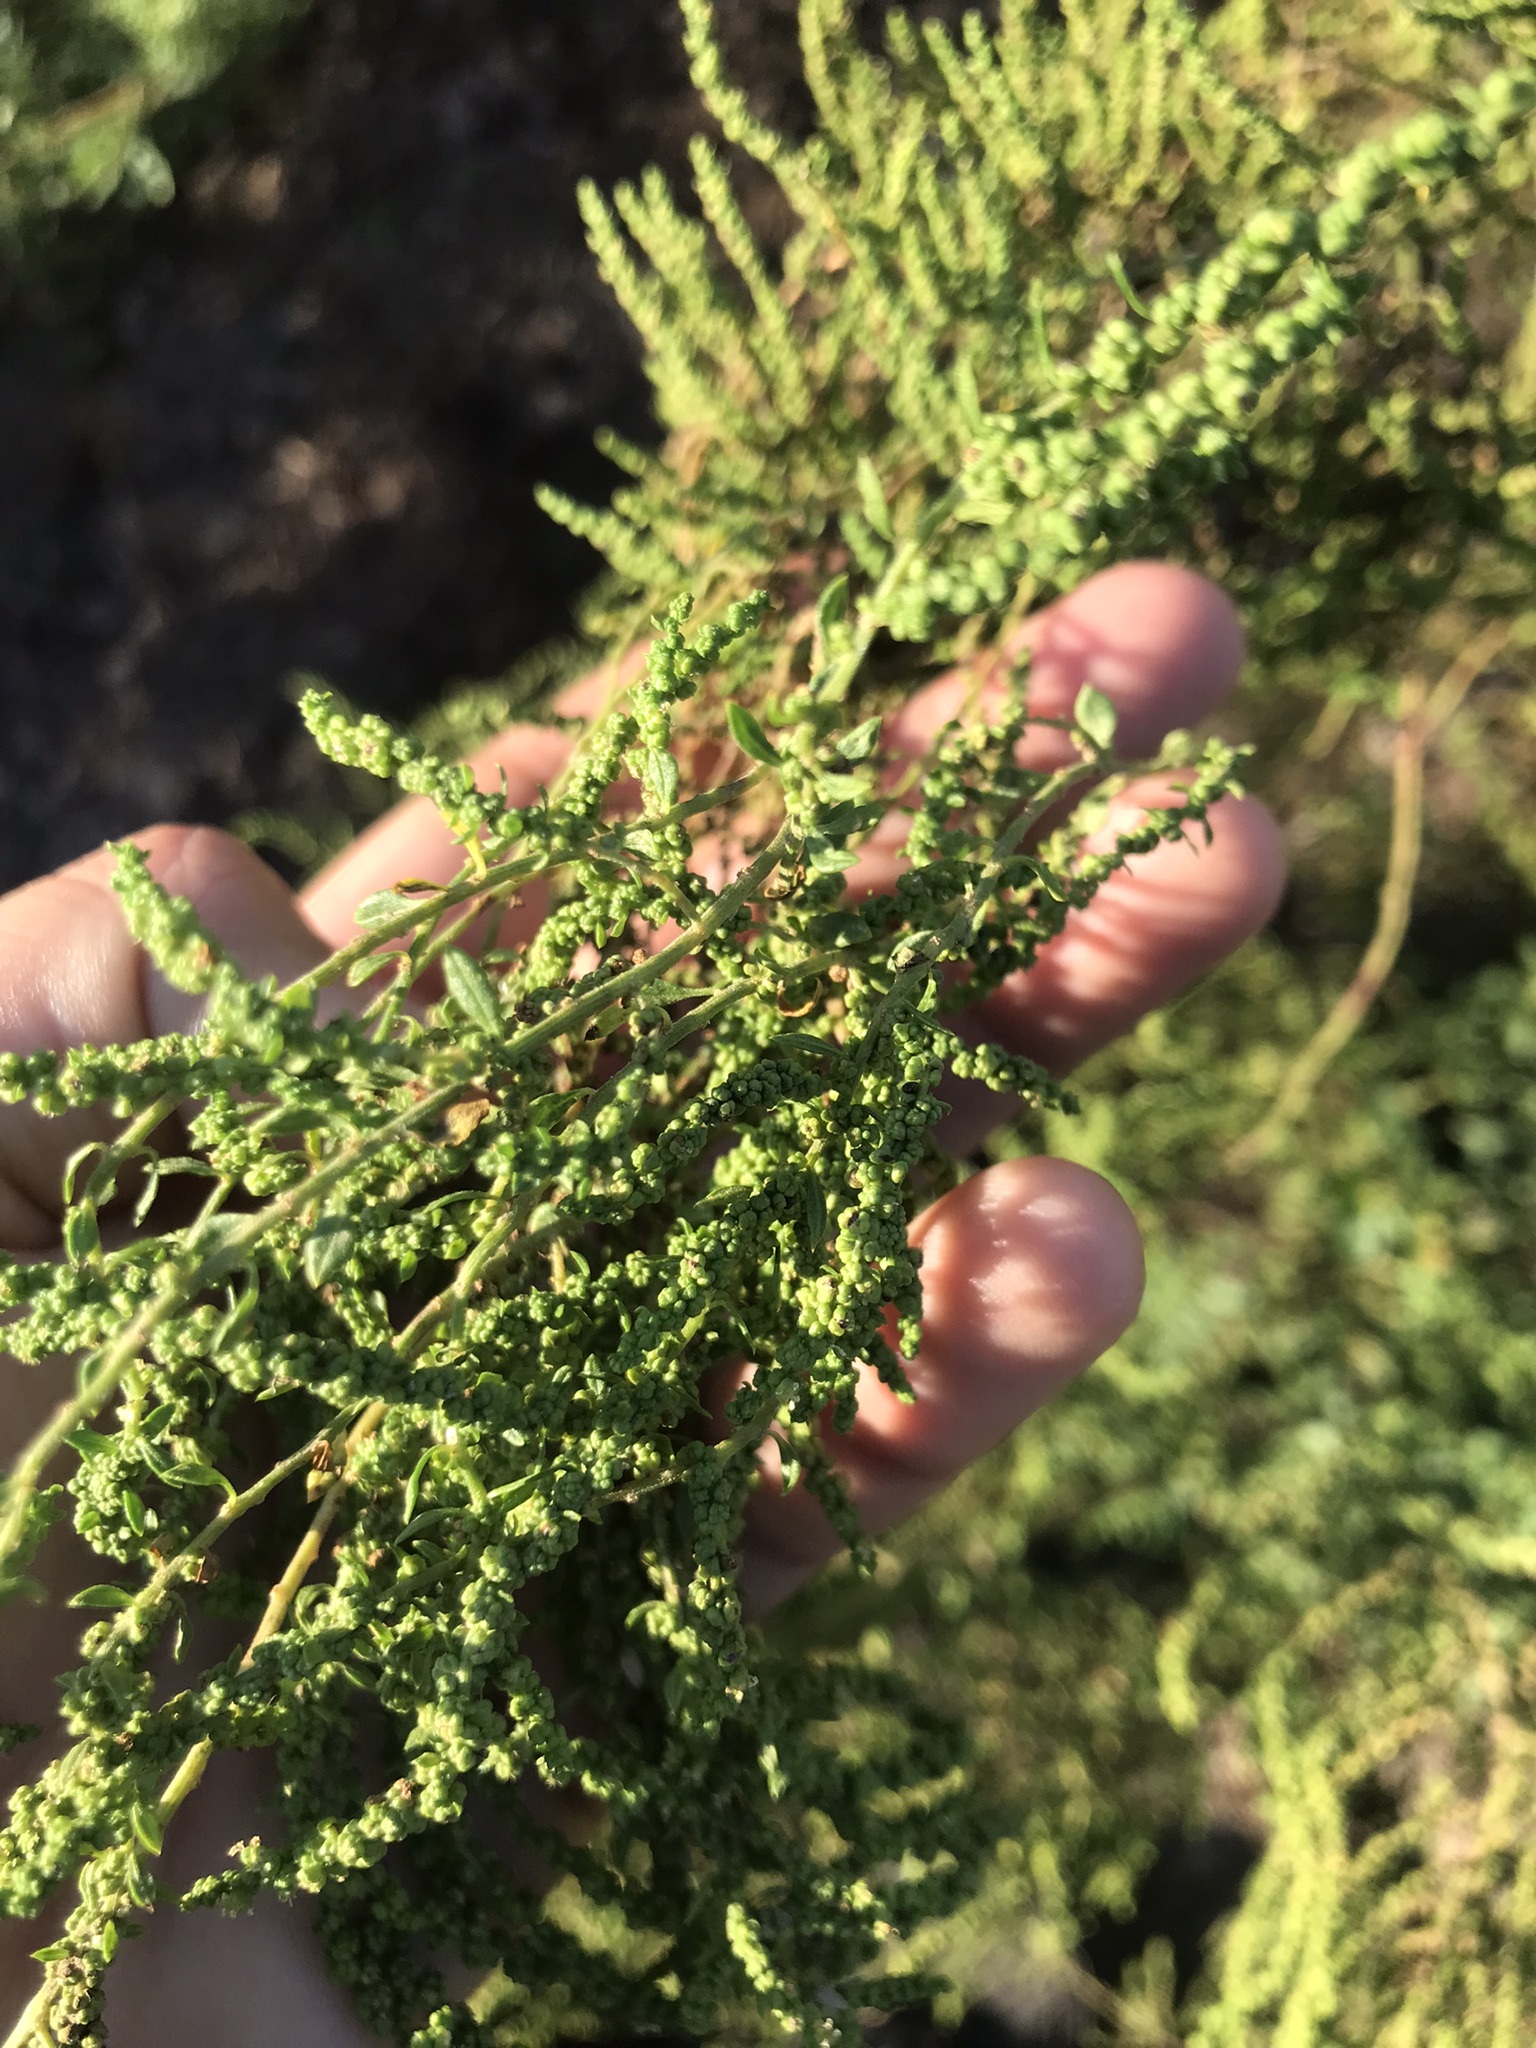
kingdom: Plantae
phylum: Tracheophyta
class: Magnoliopsida
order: Caryophyllales
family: Amaranthaceae
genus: Dysphania
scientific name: Dysphania ambrosioides
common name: Wormseed
